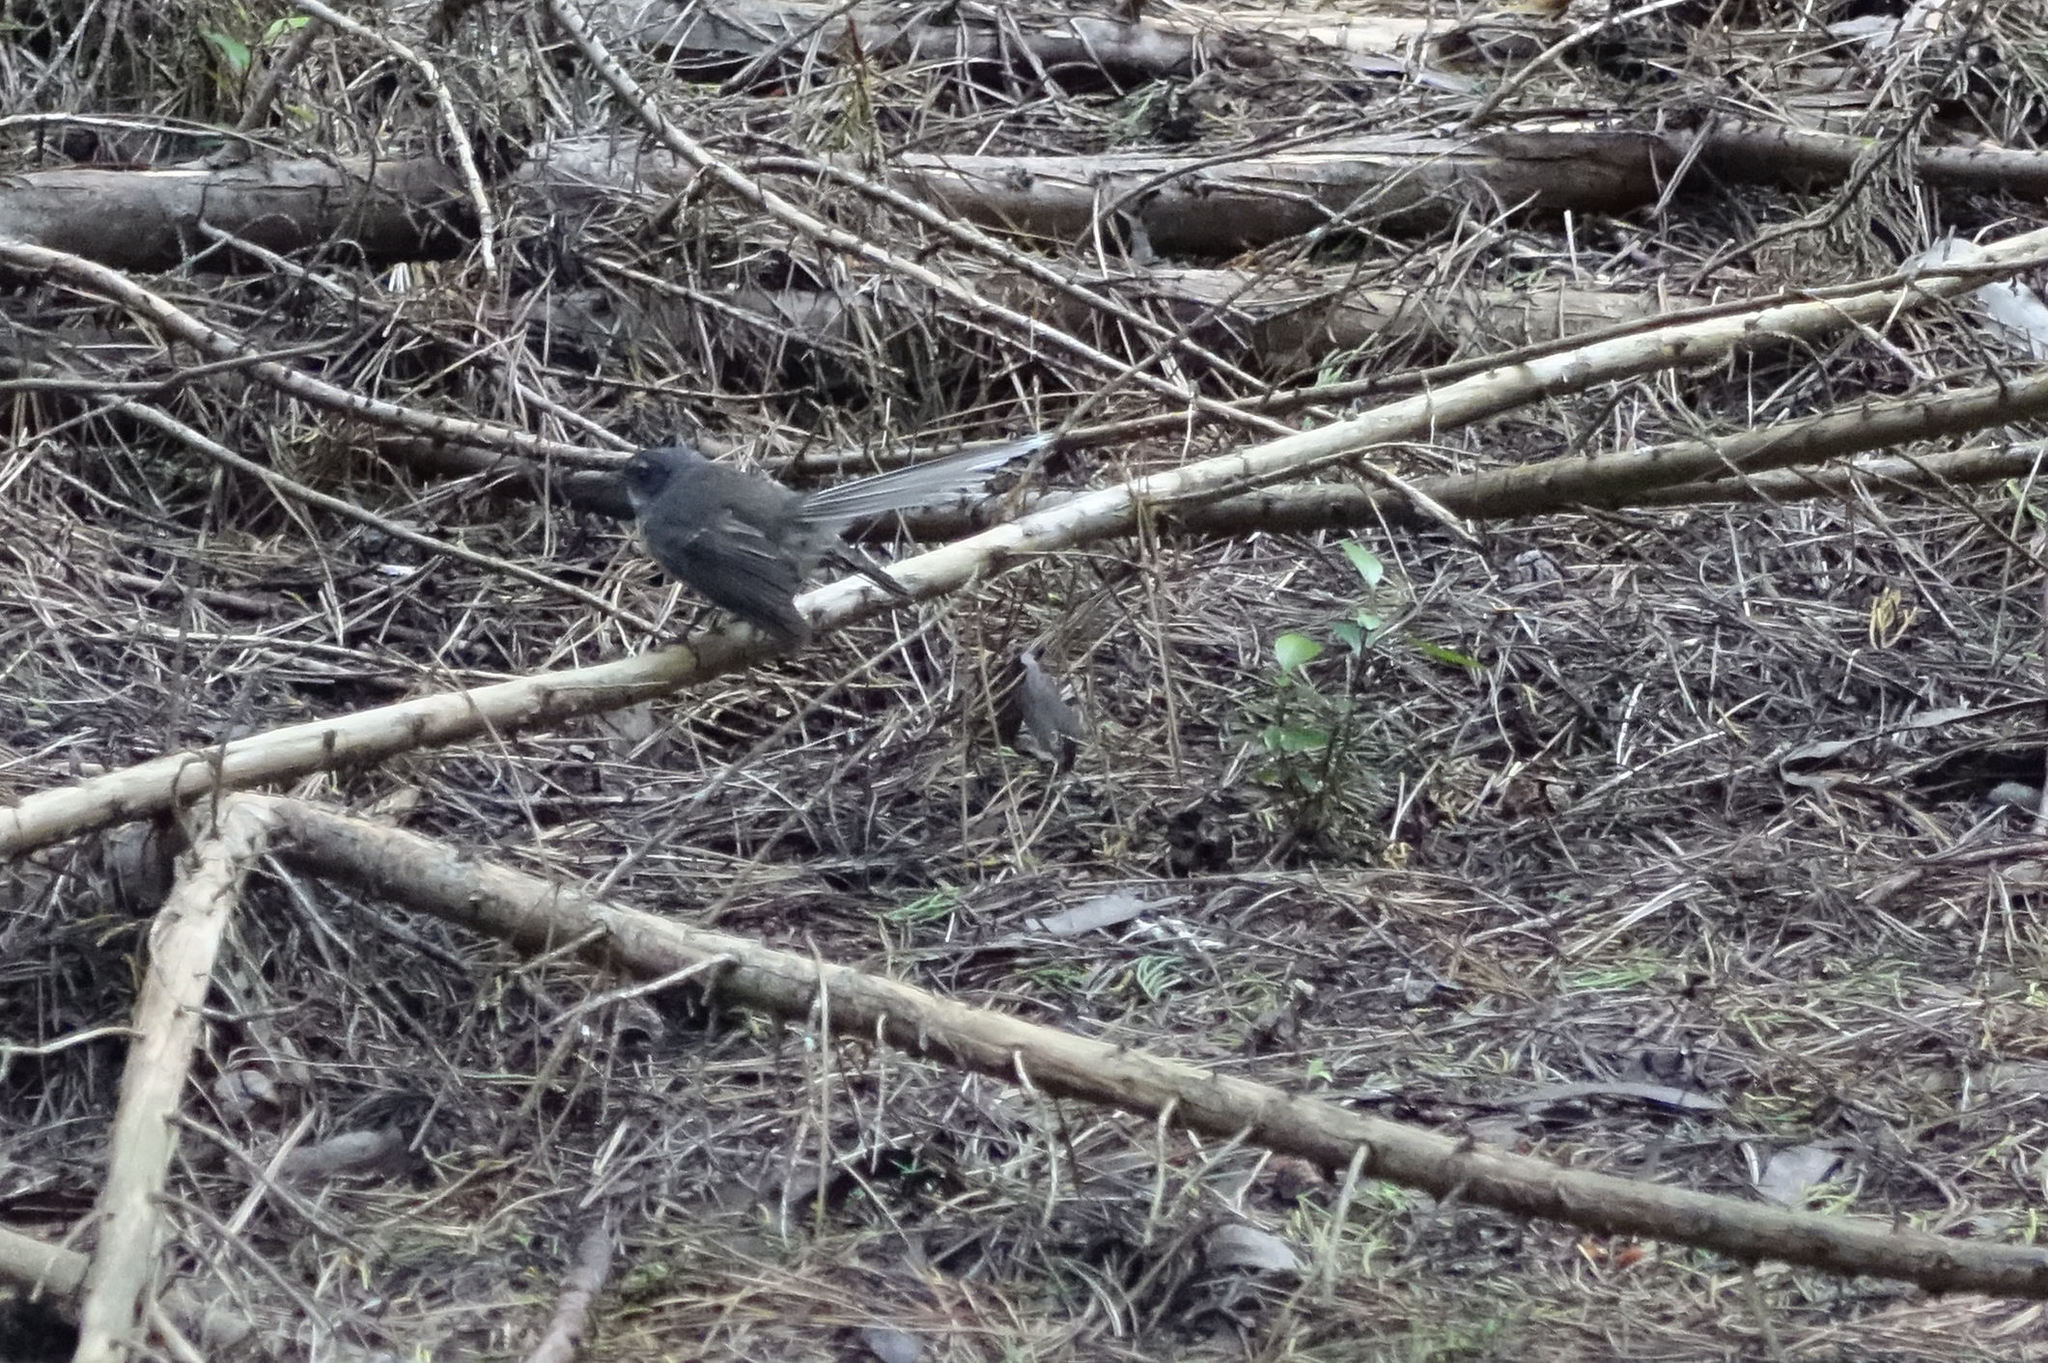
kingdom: Animalia
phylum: Chordata
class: Aves
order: Passeriformes
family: Rhipiduridae
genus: Rhipidura
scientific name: Rhipidura fuliginosa
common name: New zealand fantail
